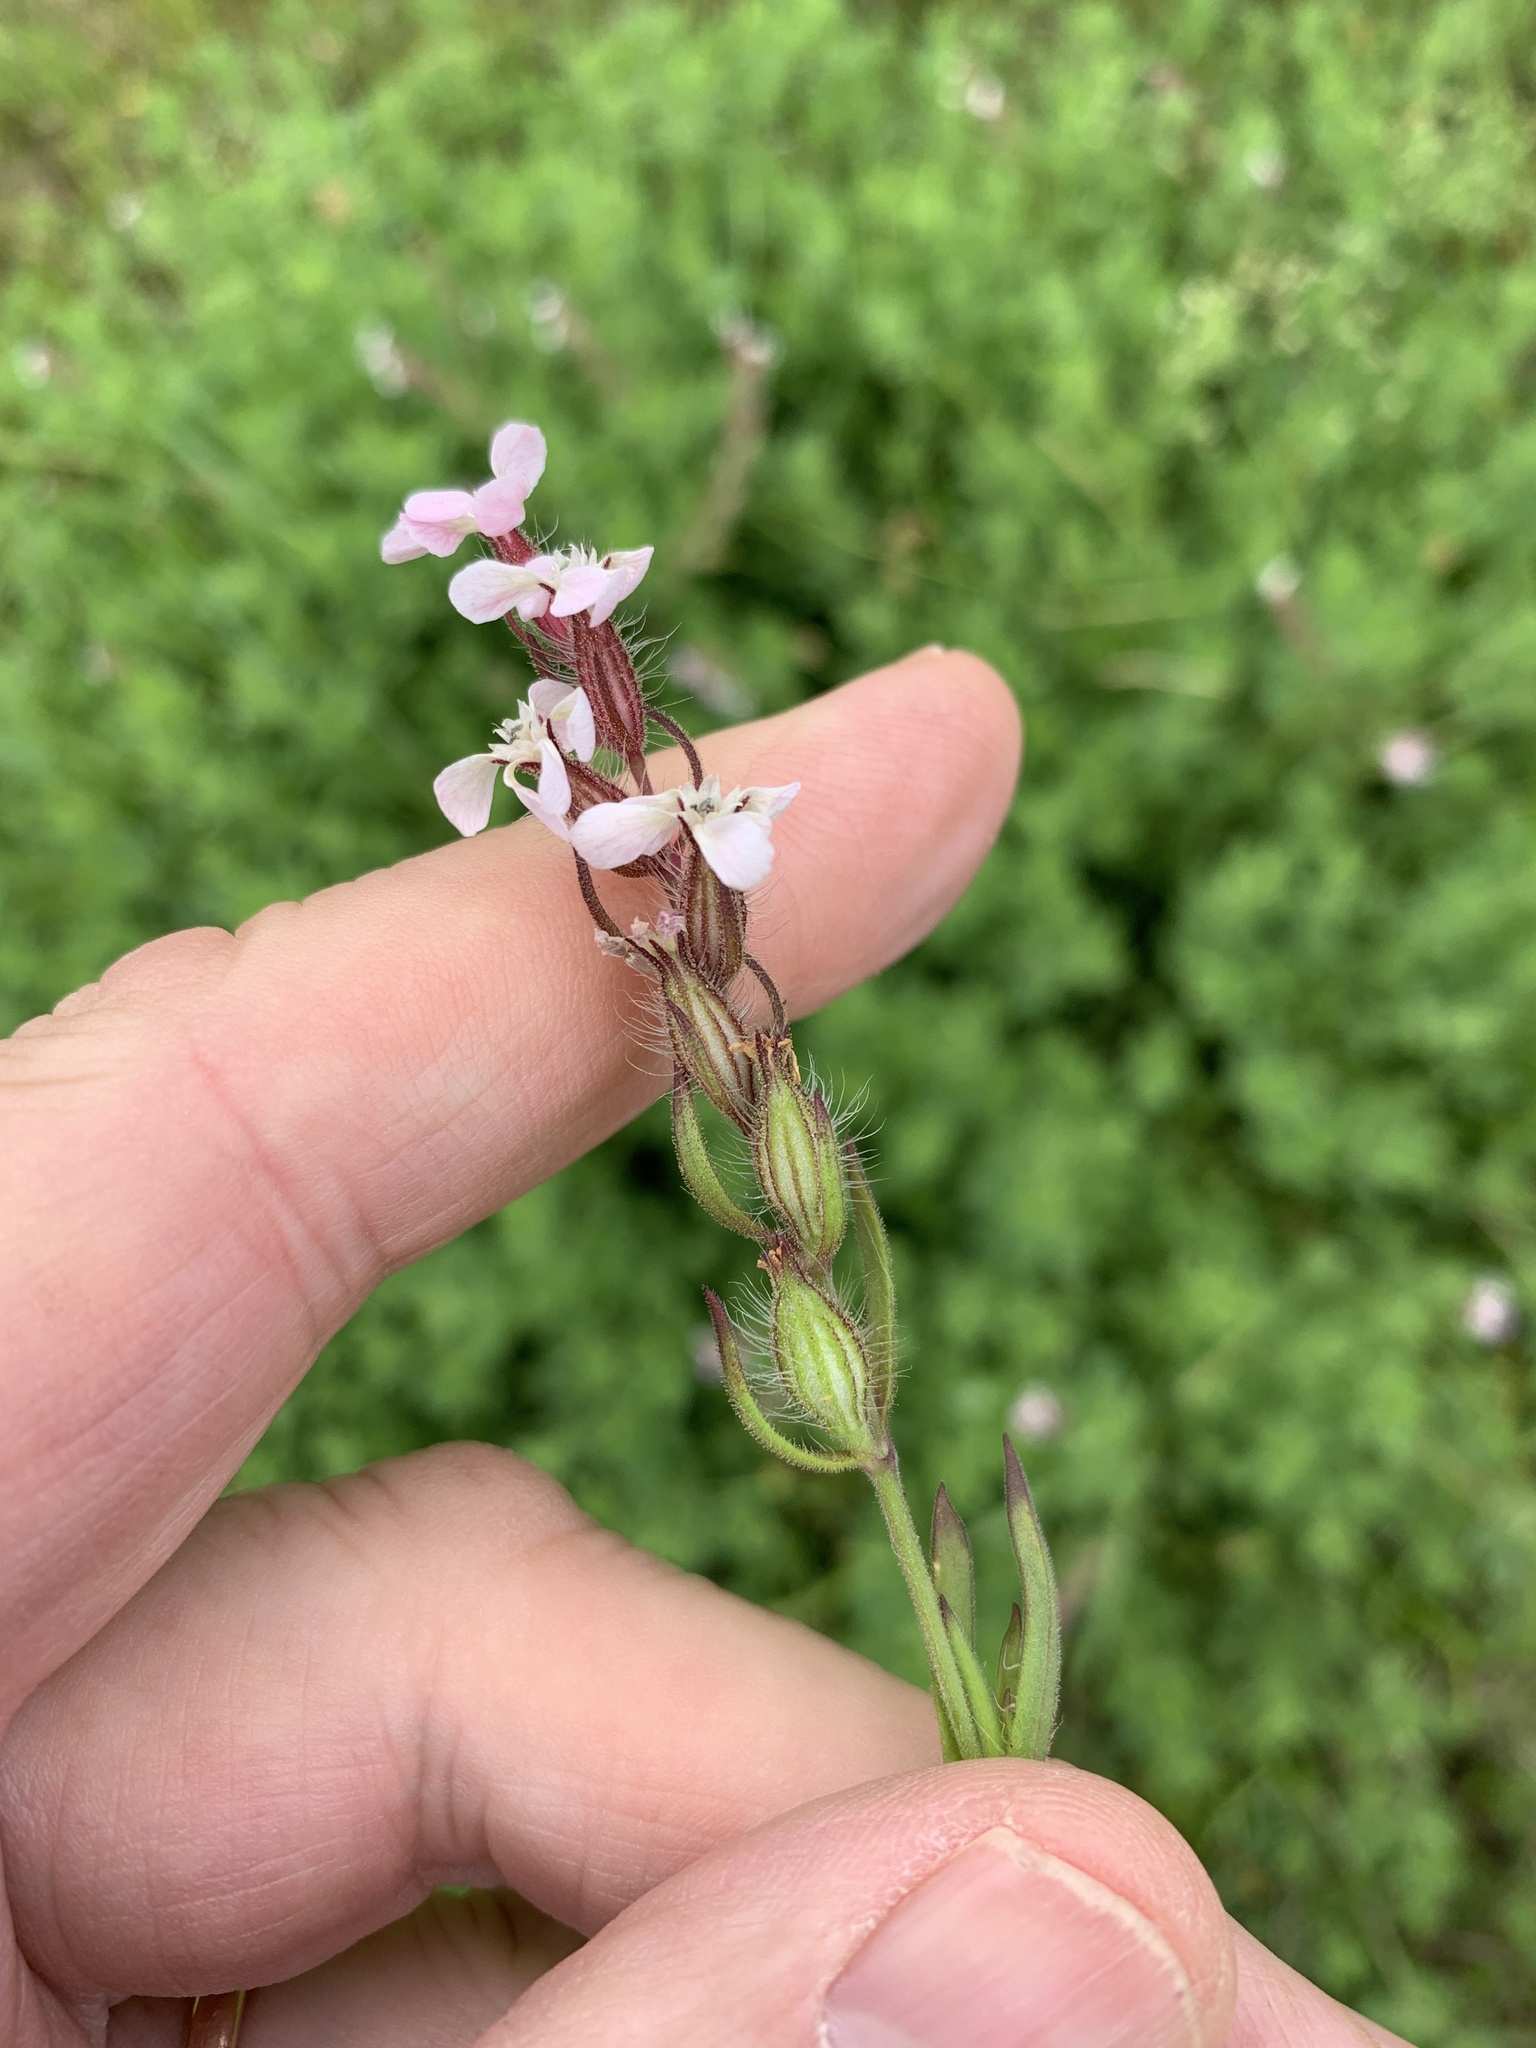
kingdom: Plantae
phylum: Tracheophyta
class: Magnoliopsida
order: Caryophyllales
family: Caryophyllaceae
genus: Silene
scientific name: Silene gallica
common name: Small-flowered catchfly
